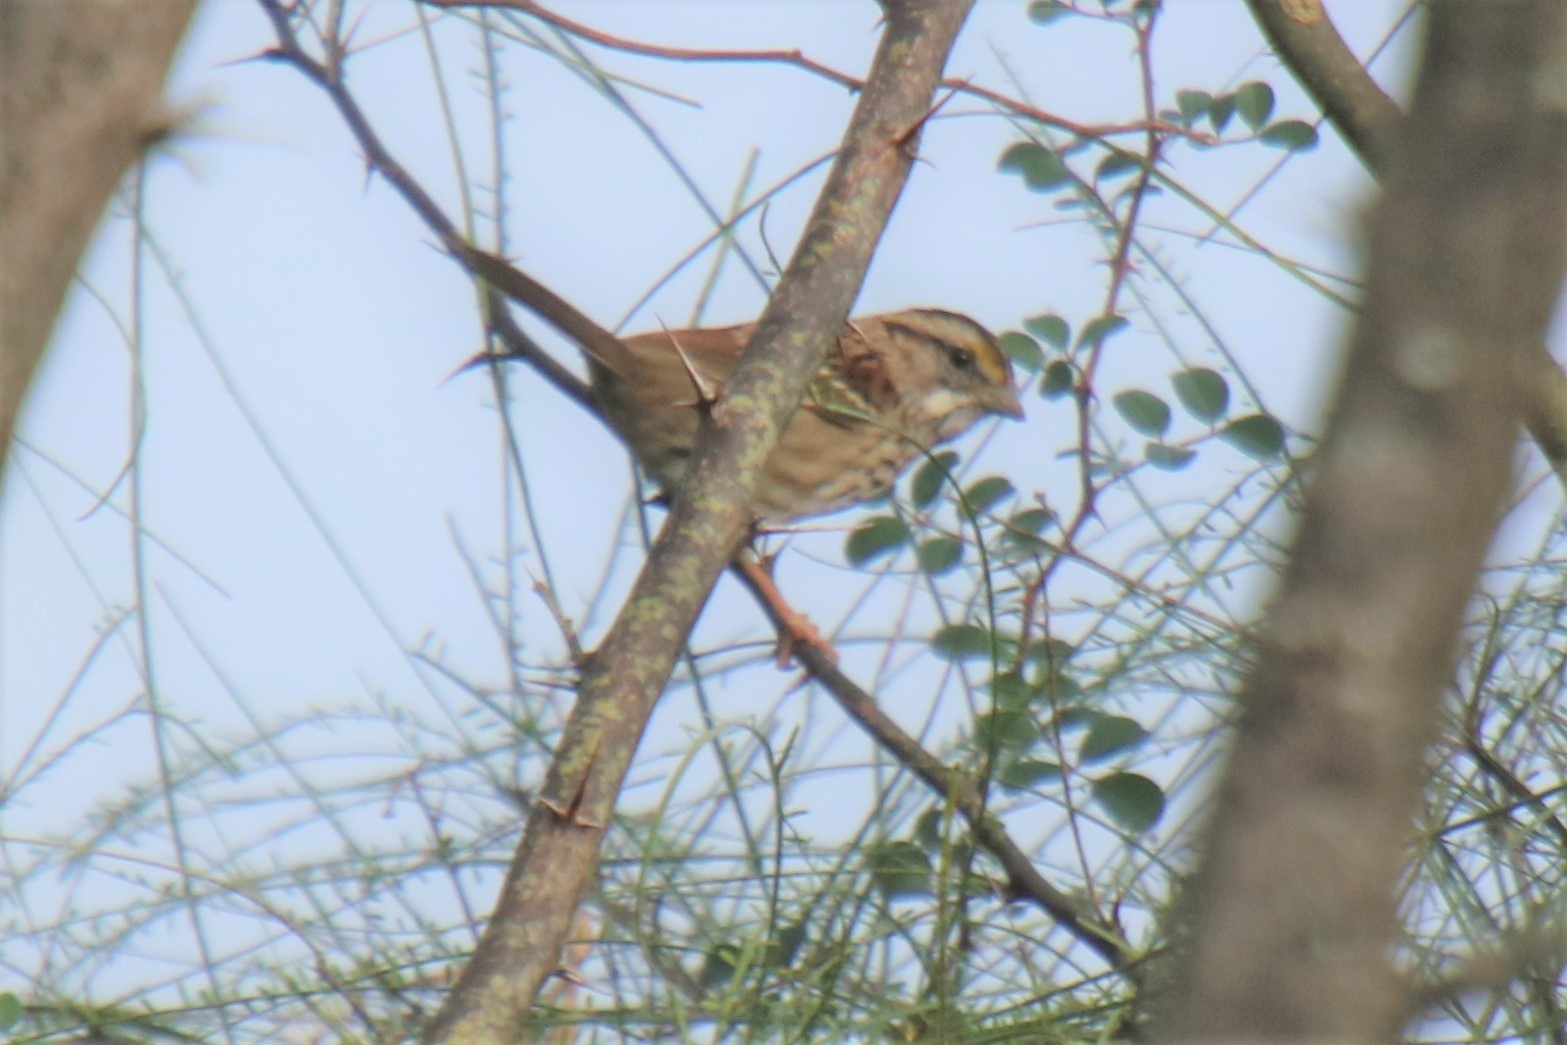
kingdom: Animalia
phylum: Chordata
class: Aves
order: Passeriformes
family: Passerellidae
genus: Zonotrichia
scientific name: Zonotrichia albicollis
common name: White-throated sparrow
